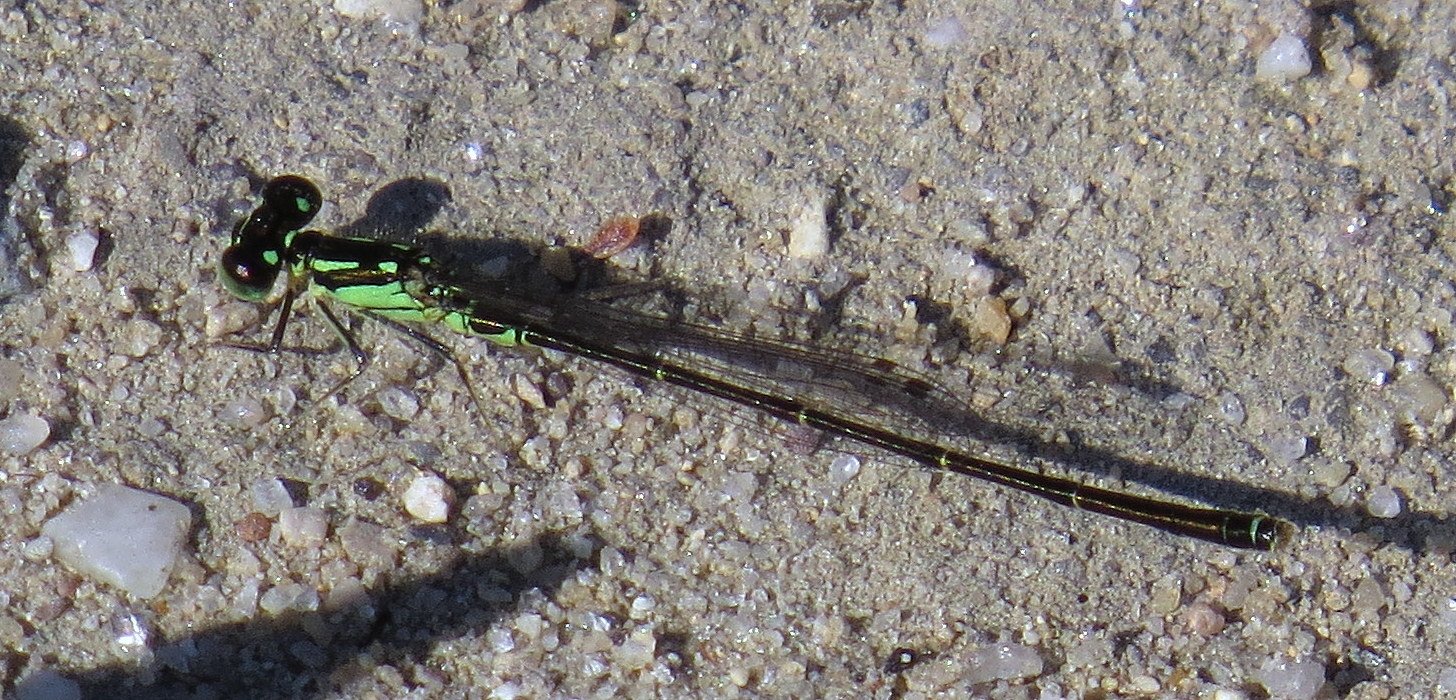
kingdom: Animalia
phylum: Arthropoda
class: Insecta
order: Odonata
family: Coenagrionidae
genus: Ischnura
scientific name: Ischnura posita
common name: Fragile forktail
